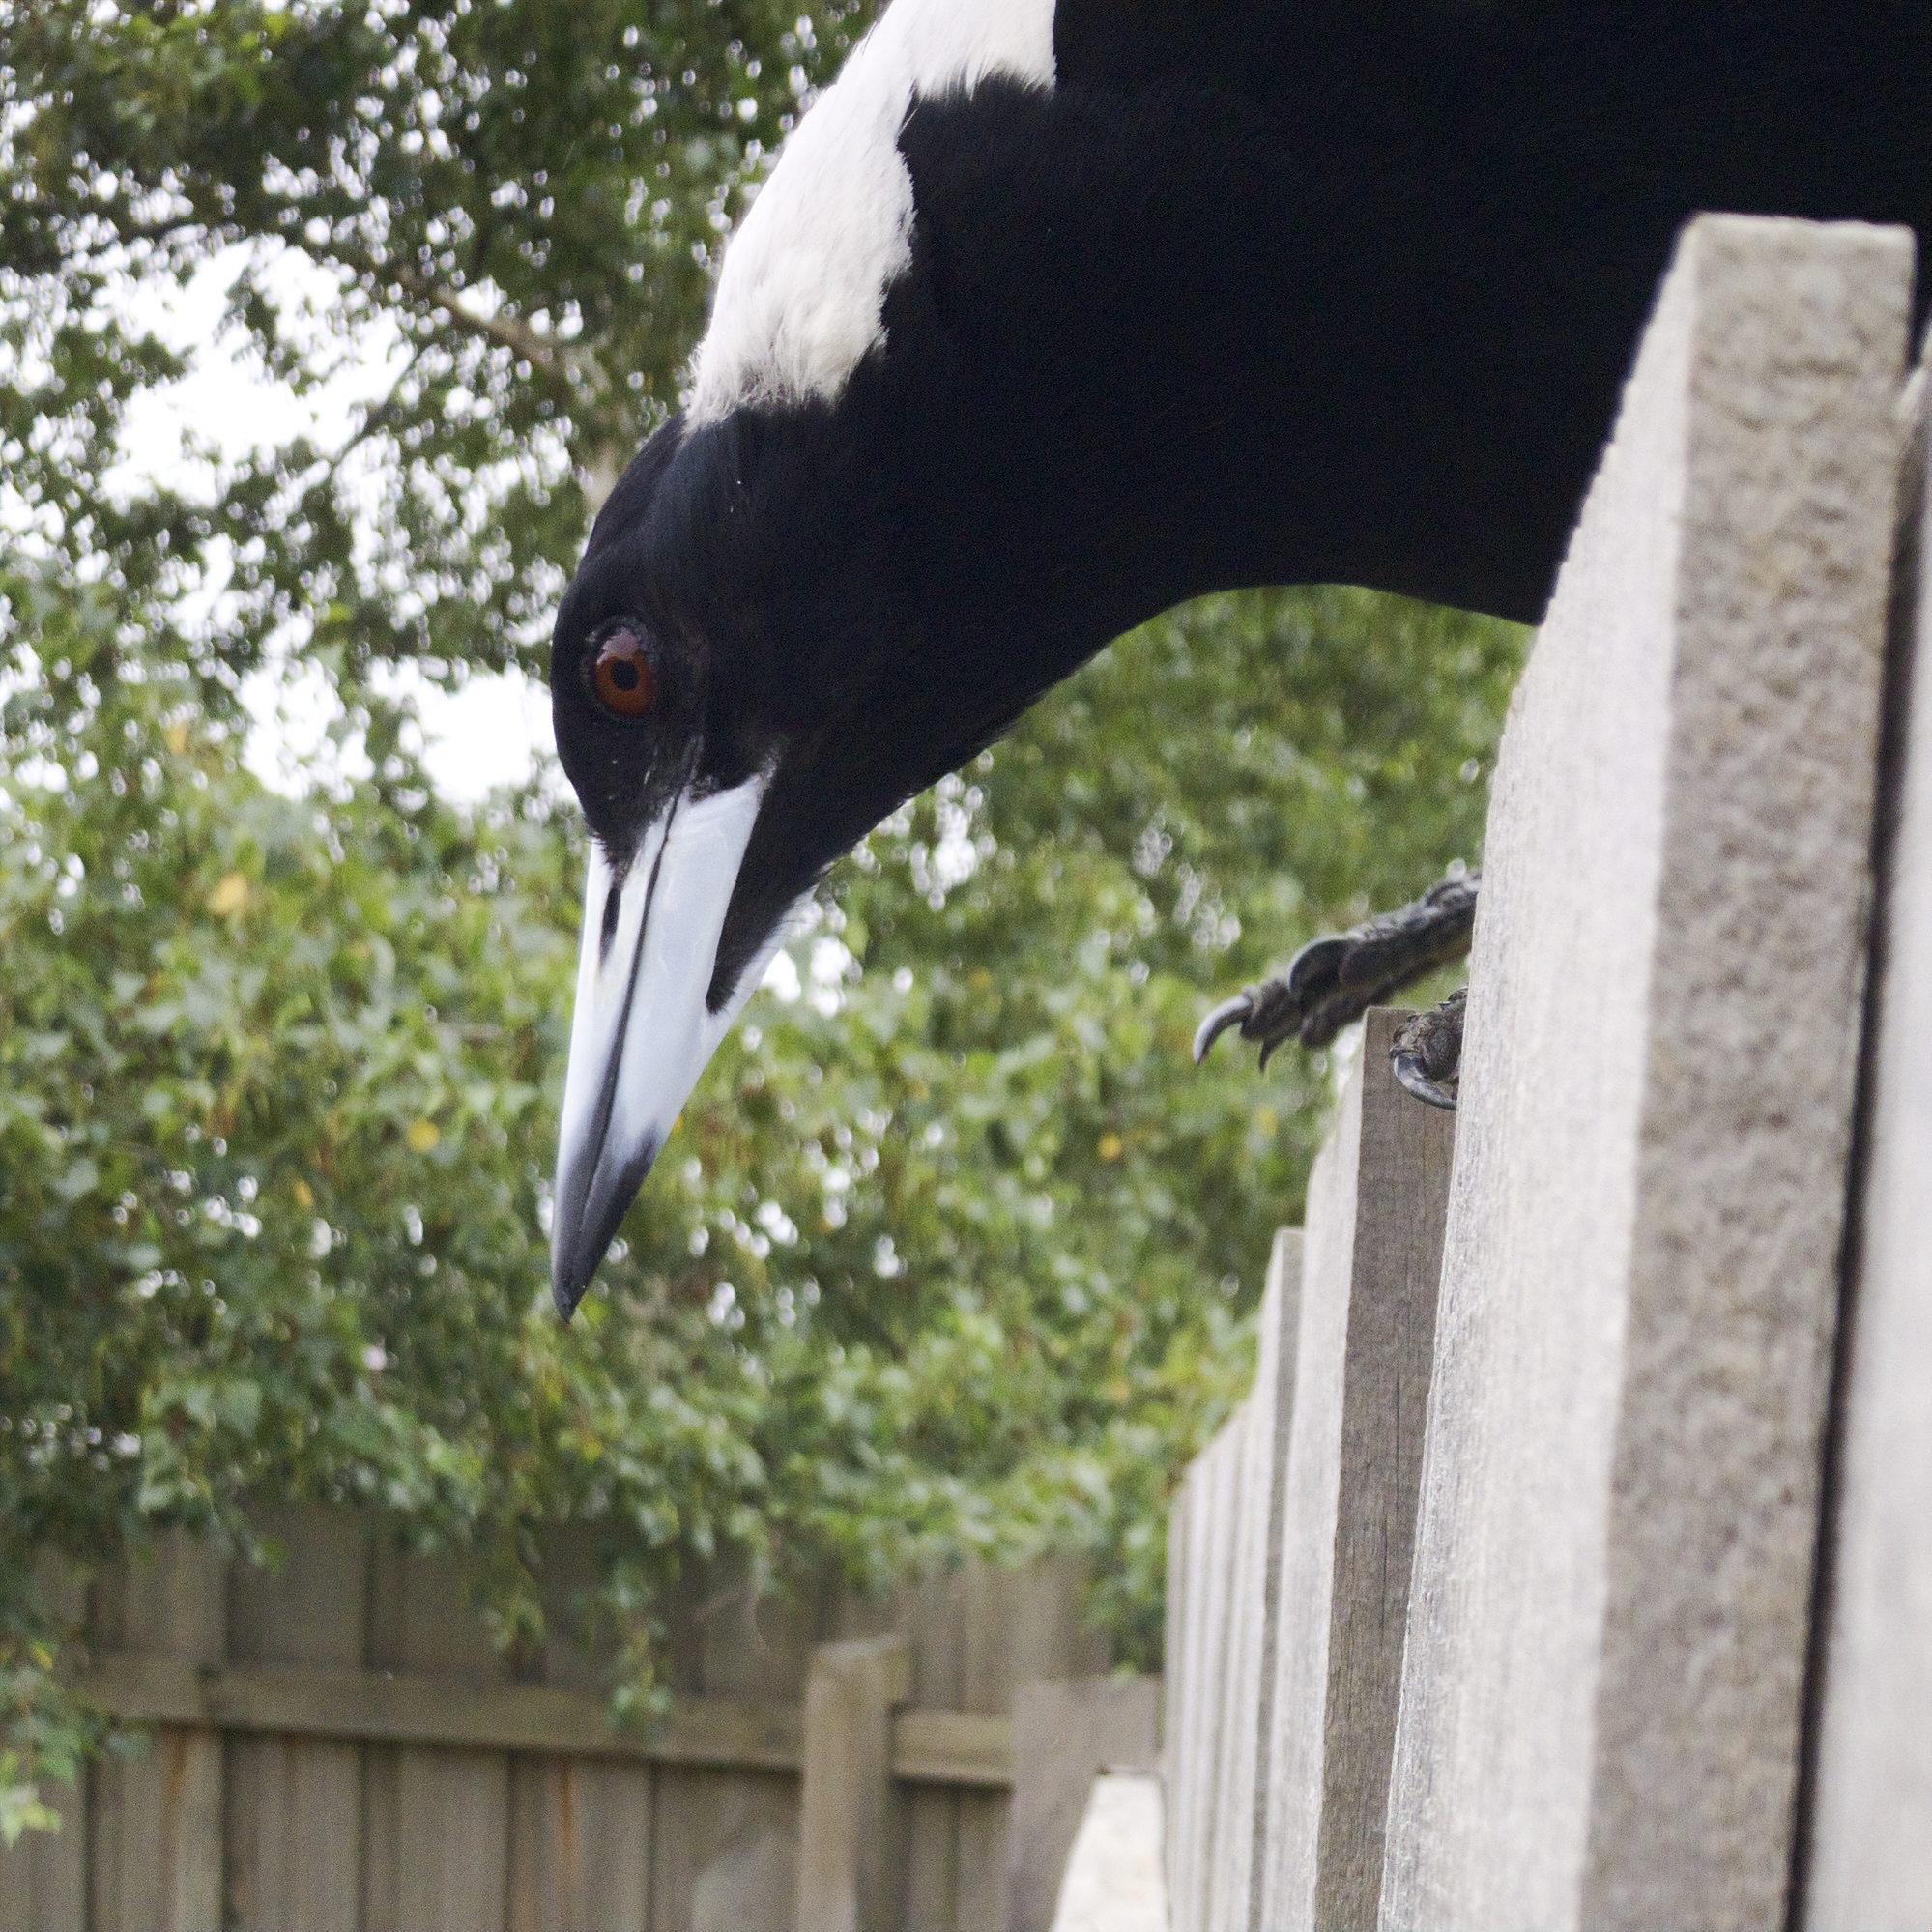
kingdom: Animalia
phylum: Chordata
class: Aves
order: Passeriformes
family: Cracticidae
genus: Gymnorhina
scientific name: Gymnorhina tibicen
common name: Australian magpie
